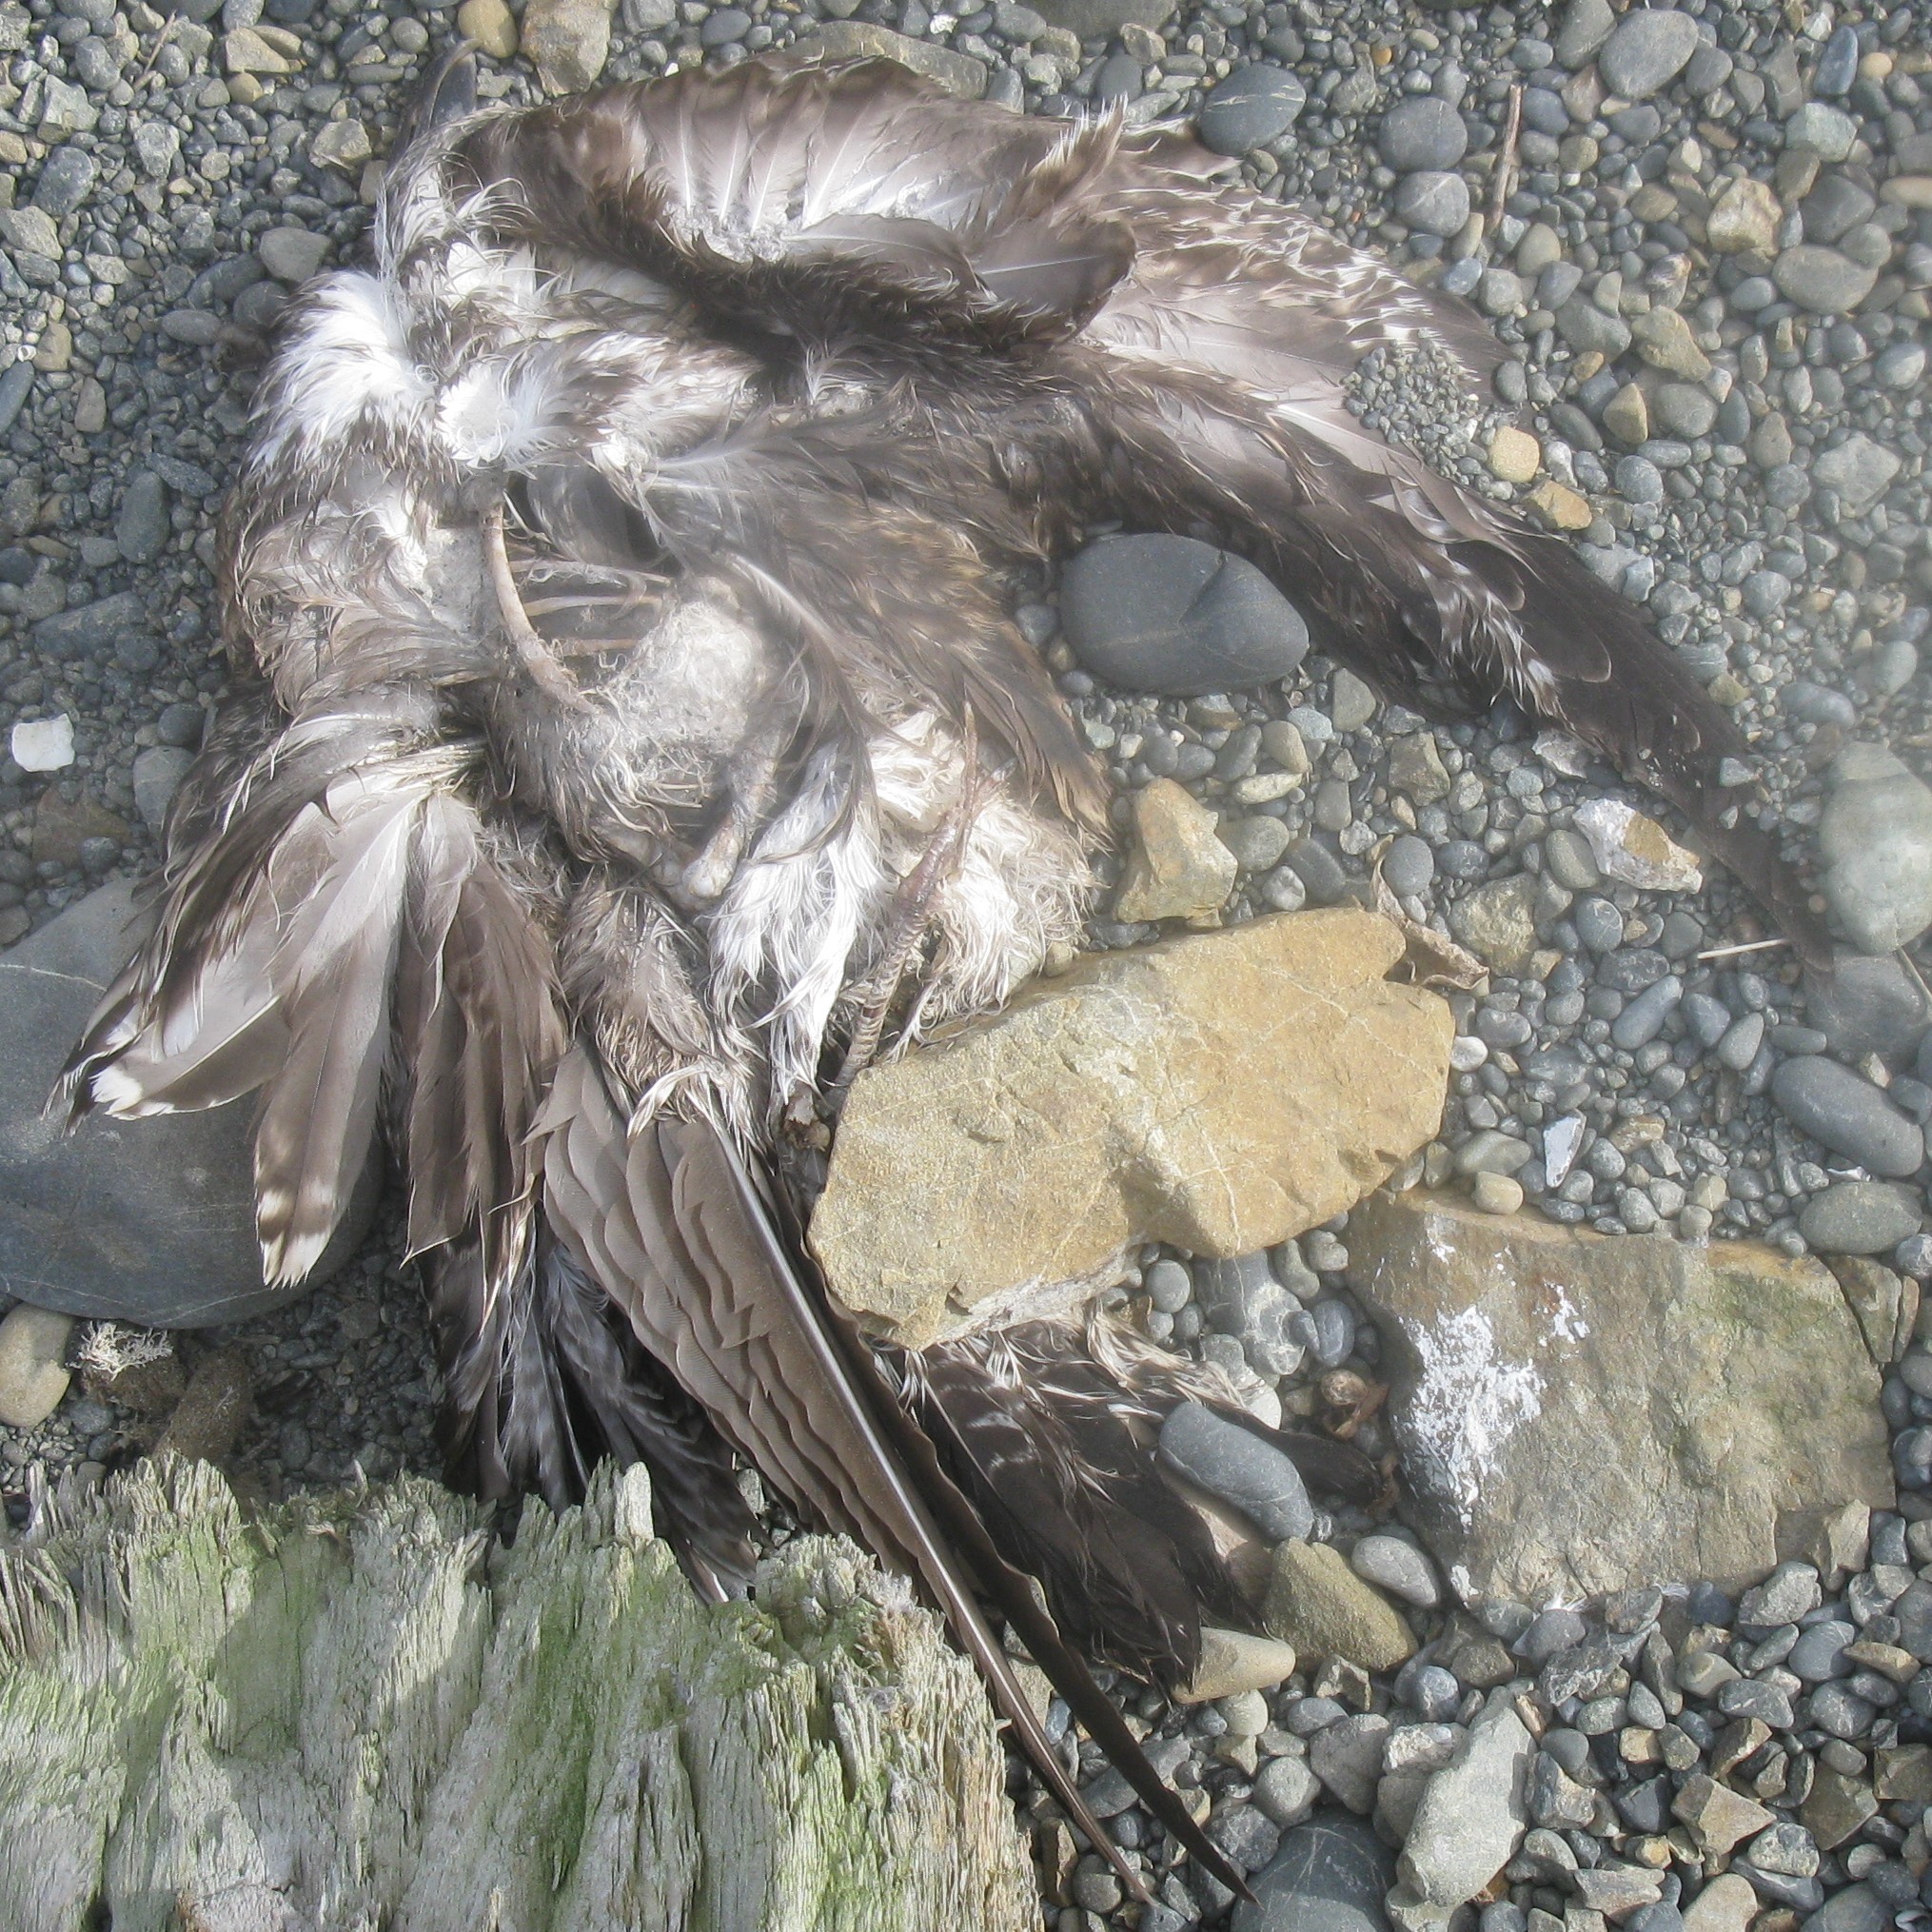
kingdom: Animalia
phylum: Chordata
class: Aves
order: Charadriiformes
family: Laridae
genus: Larus
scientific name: Larus dominicanus
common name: Kelp gull
